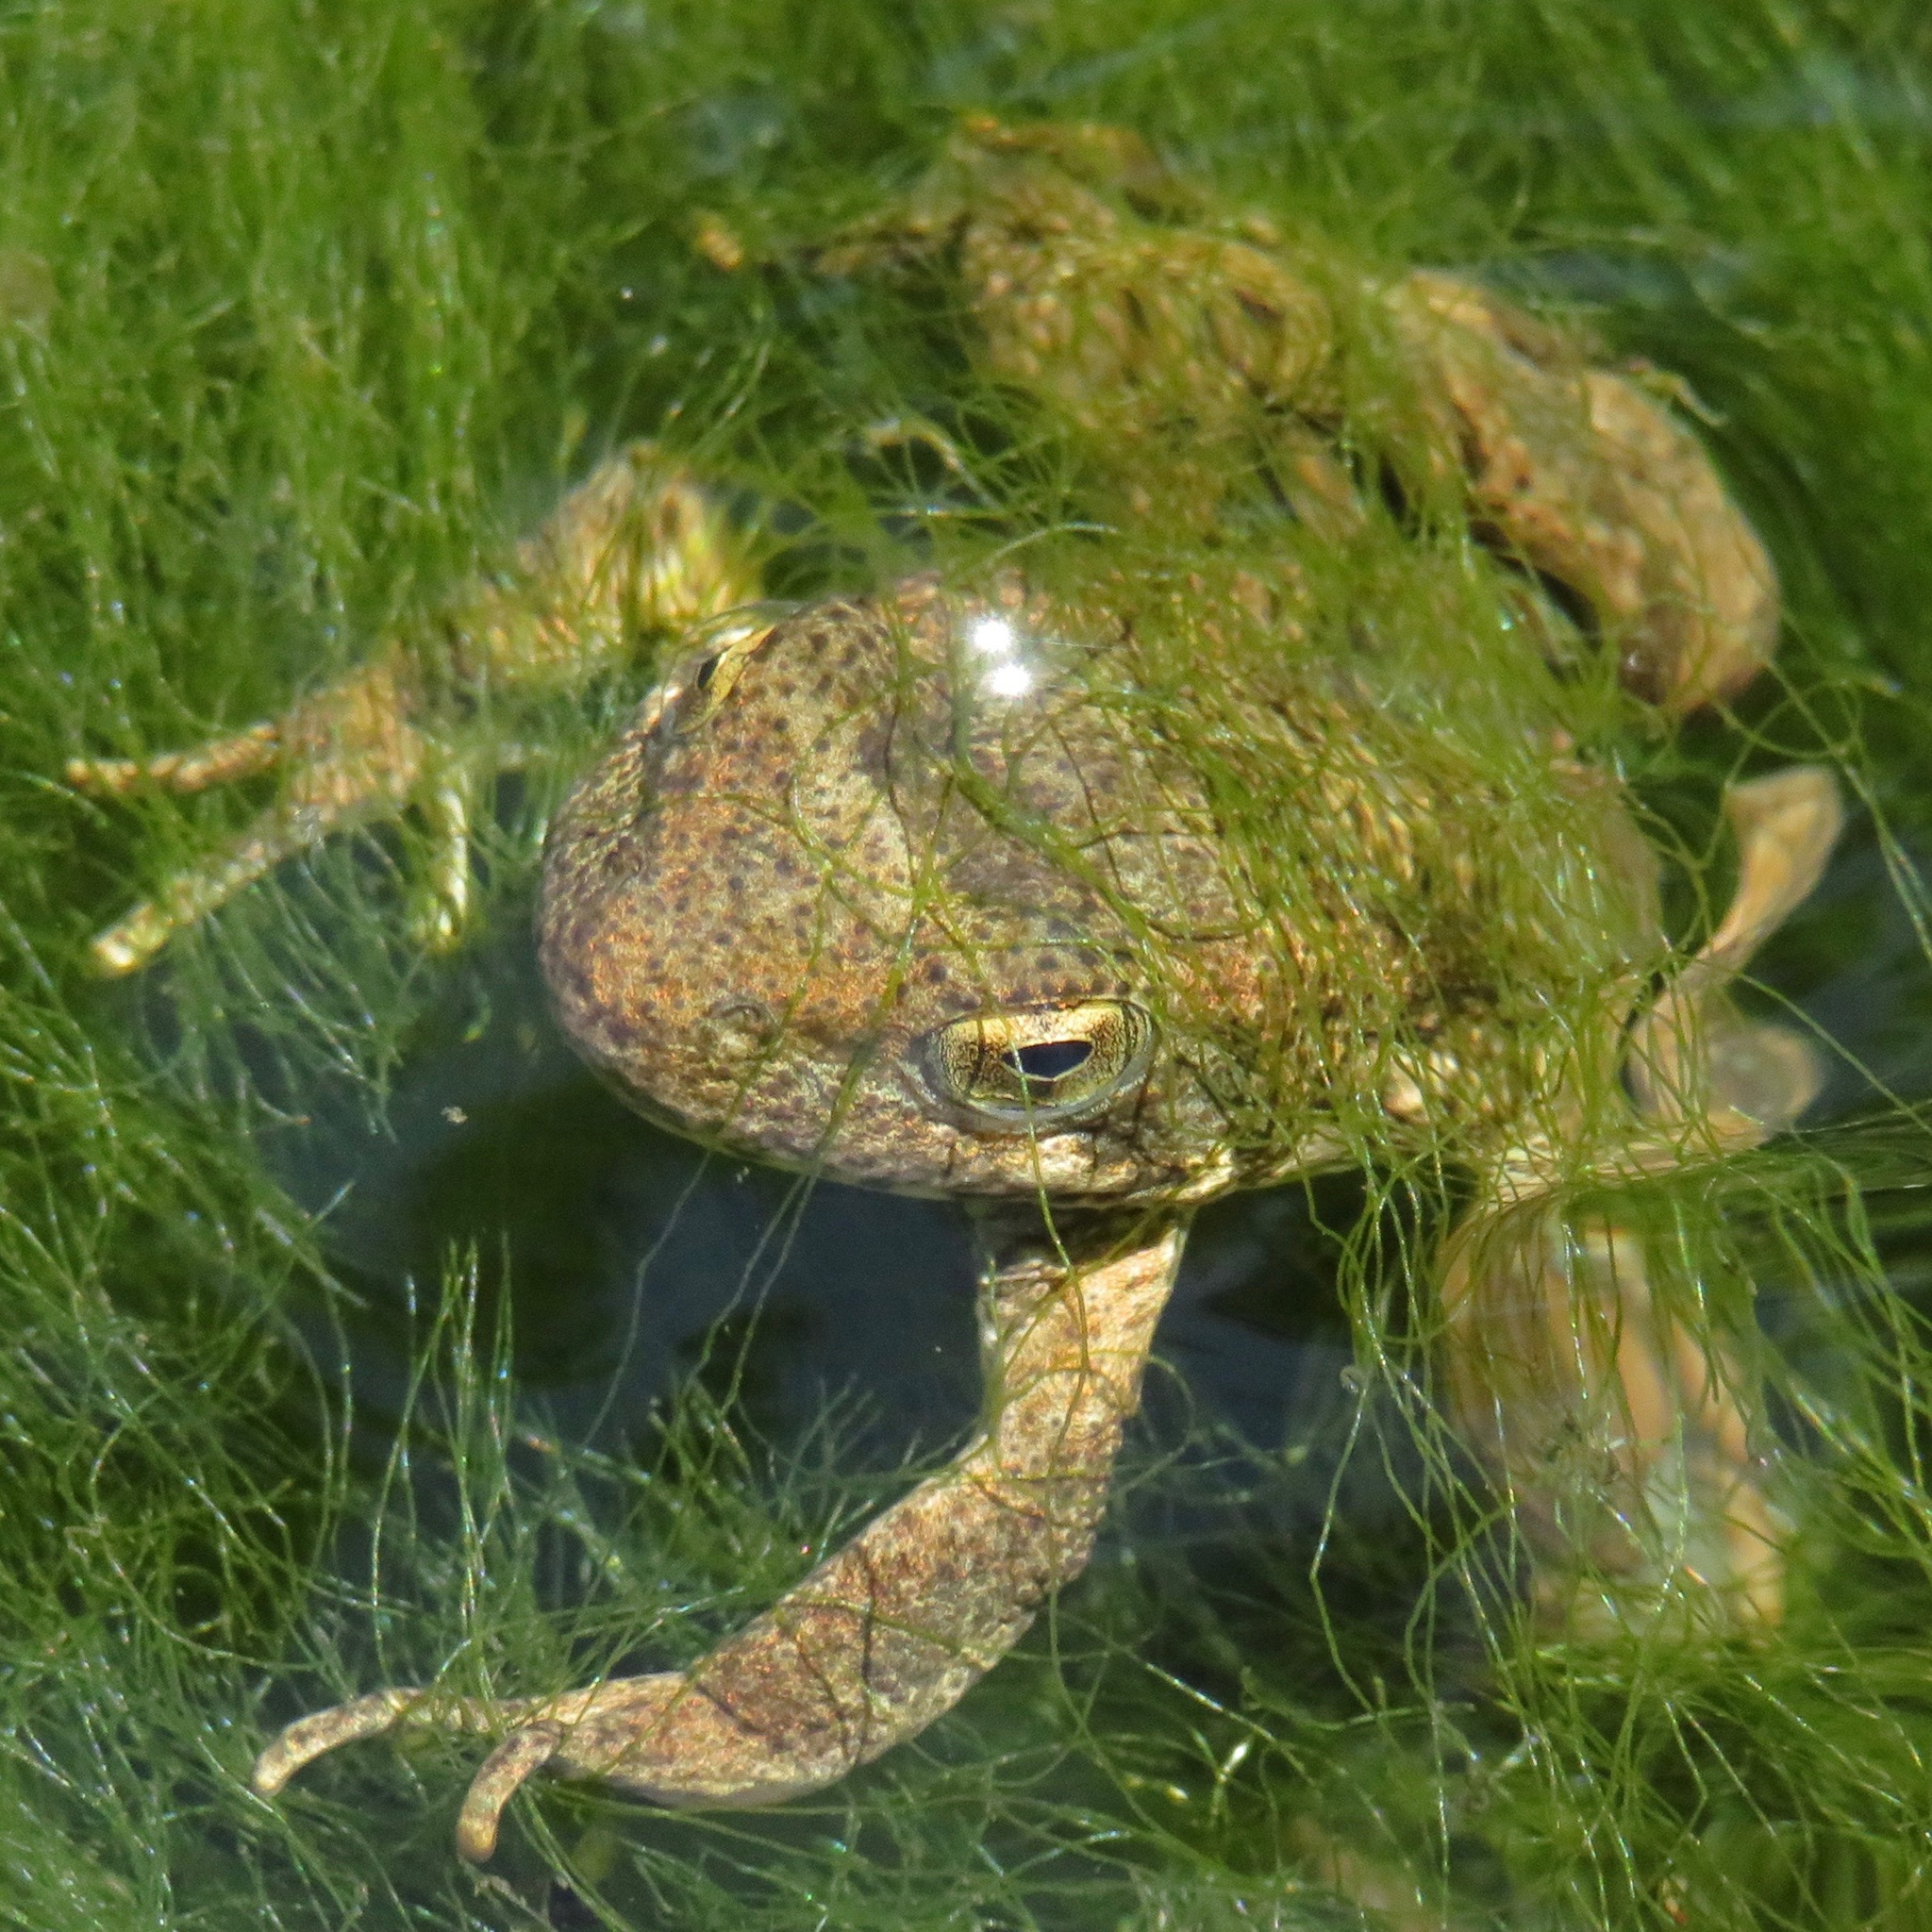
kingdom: Animalia
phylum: Chordata
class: Amphibia
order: Anura
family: Ranidae
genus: Rana
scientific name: Rana boylii
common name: Foothill yellow-legged frog
